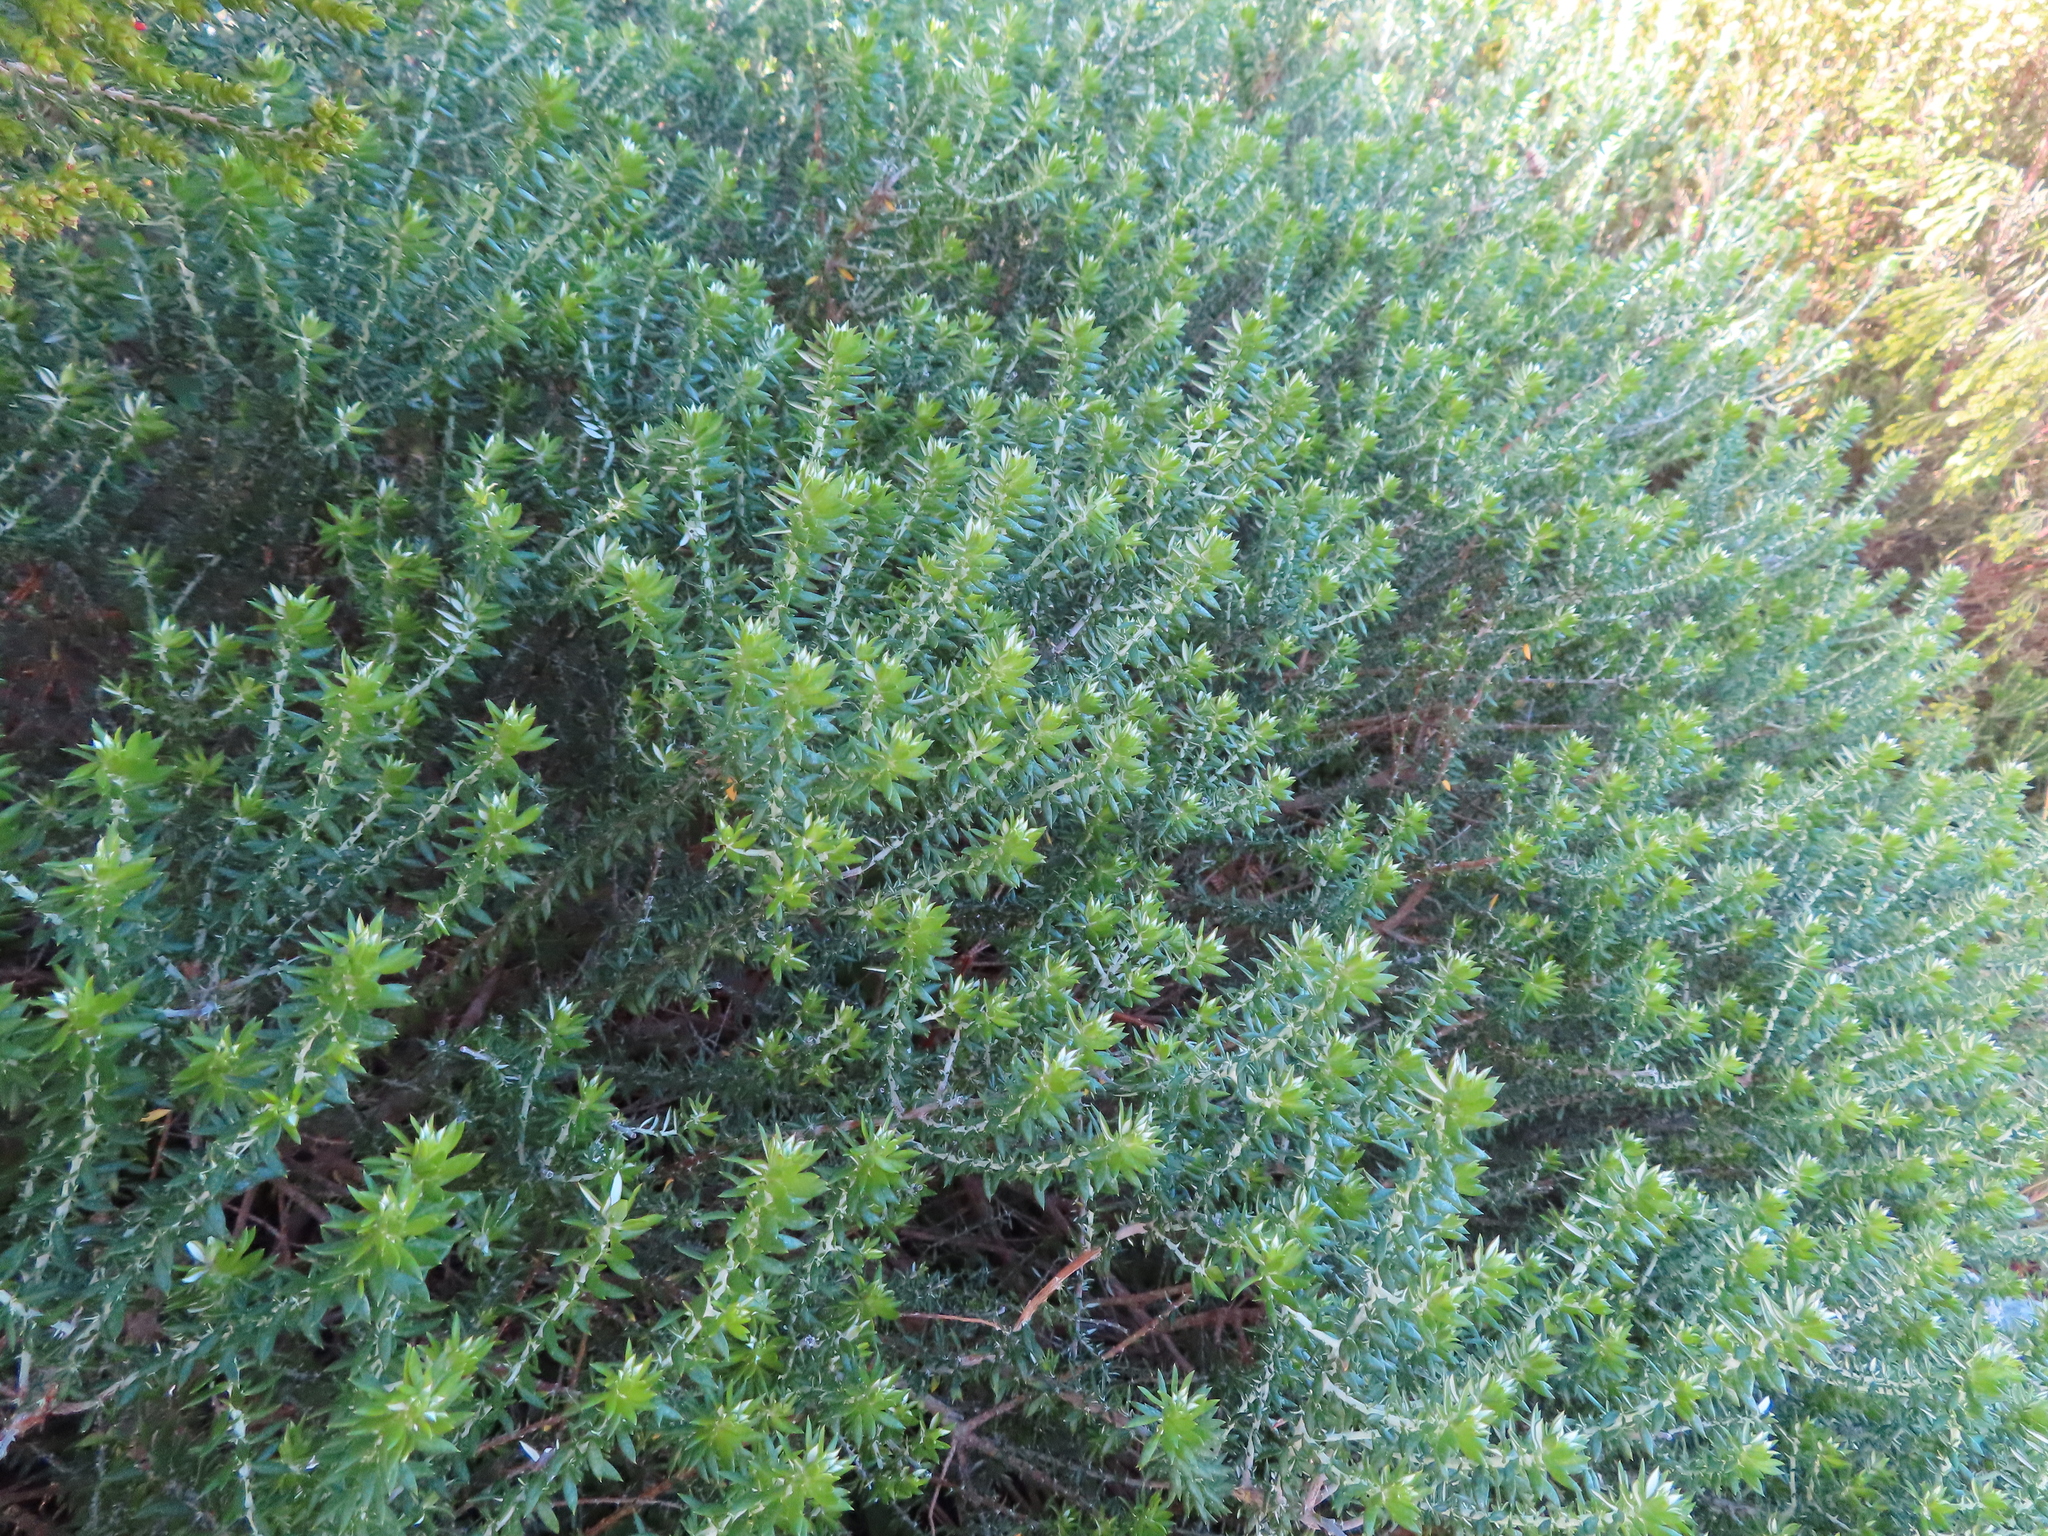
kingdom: Plantae
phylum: Tracheophyta
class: Magnoliopsida
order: Asterales
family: Asteraceae
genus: Metalasia
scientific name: Metalasia muricata
